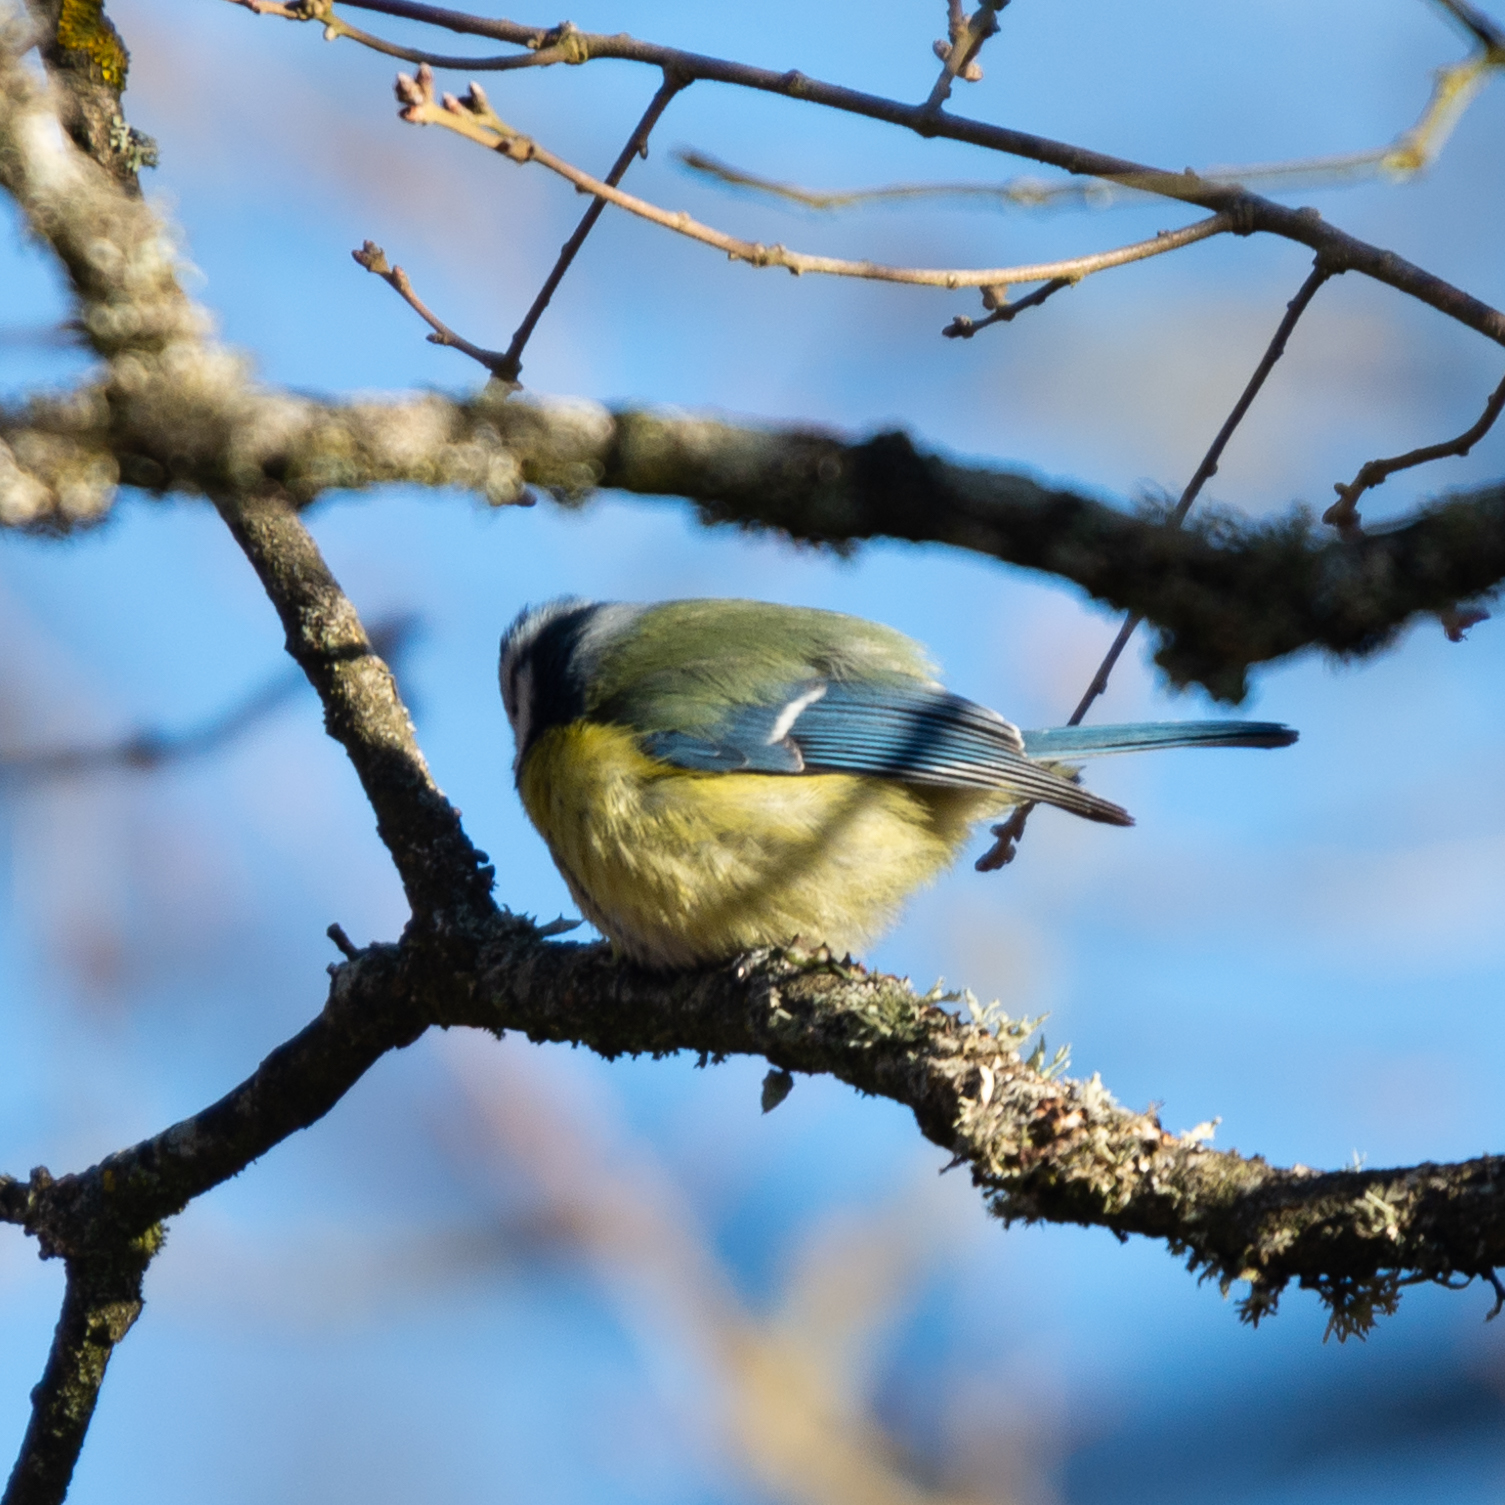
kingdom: Animalia
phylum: Chordata
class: Aves
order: Passeriformes
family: Paridae
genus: Cyanistes
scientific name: Cyanistes caeruleus
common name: Eurasian blue tit
